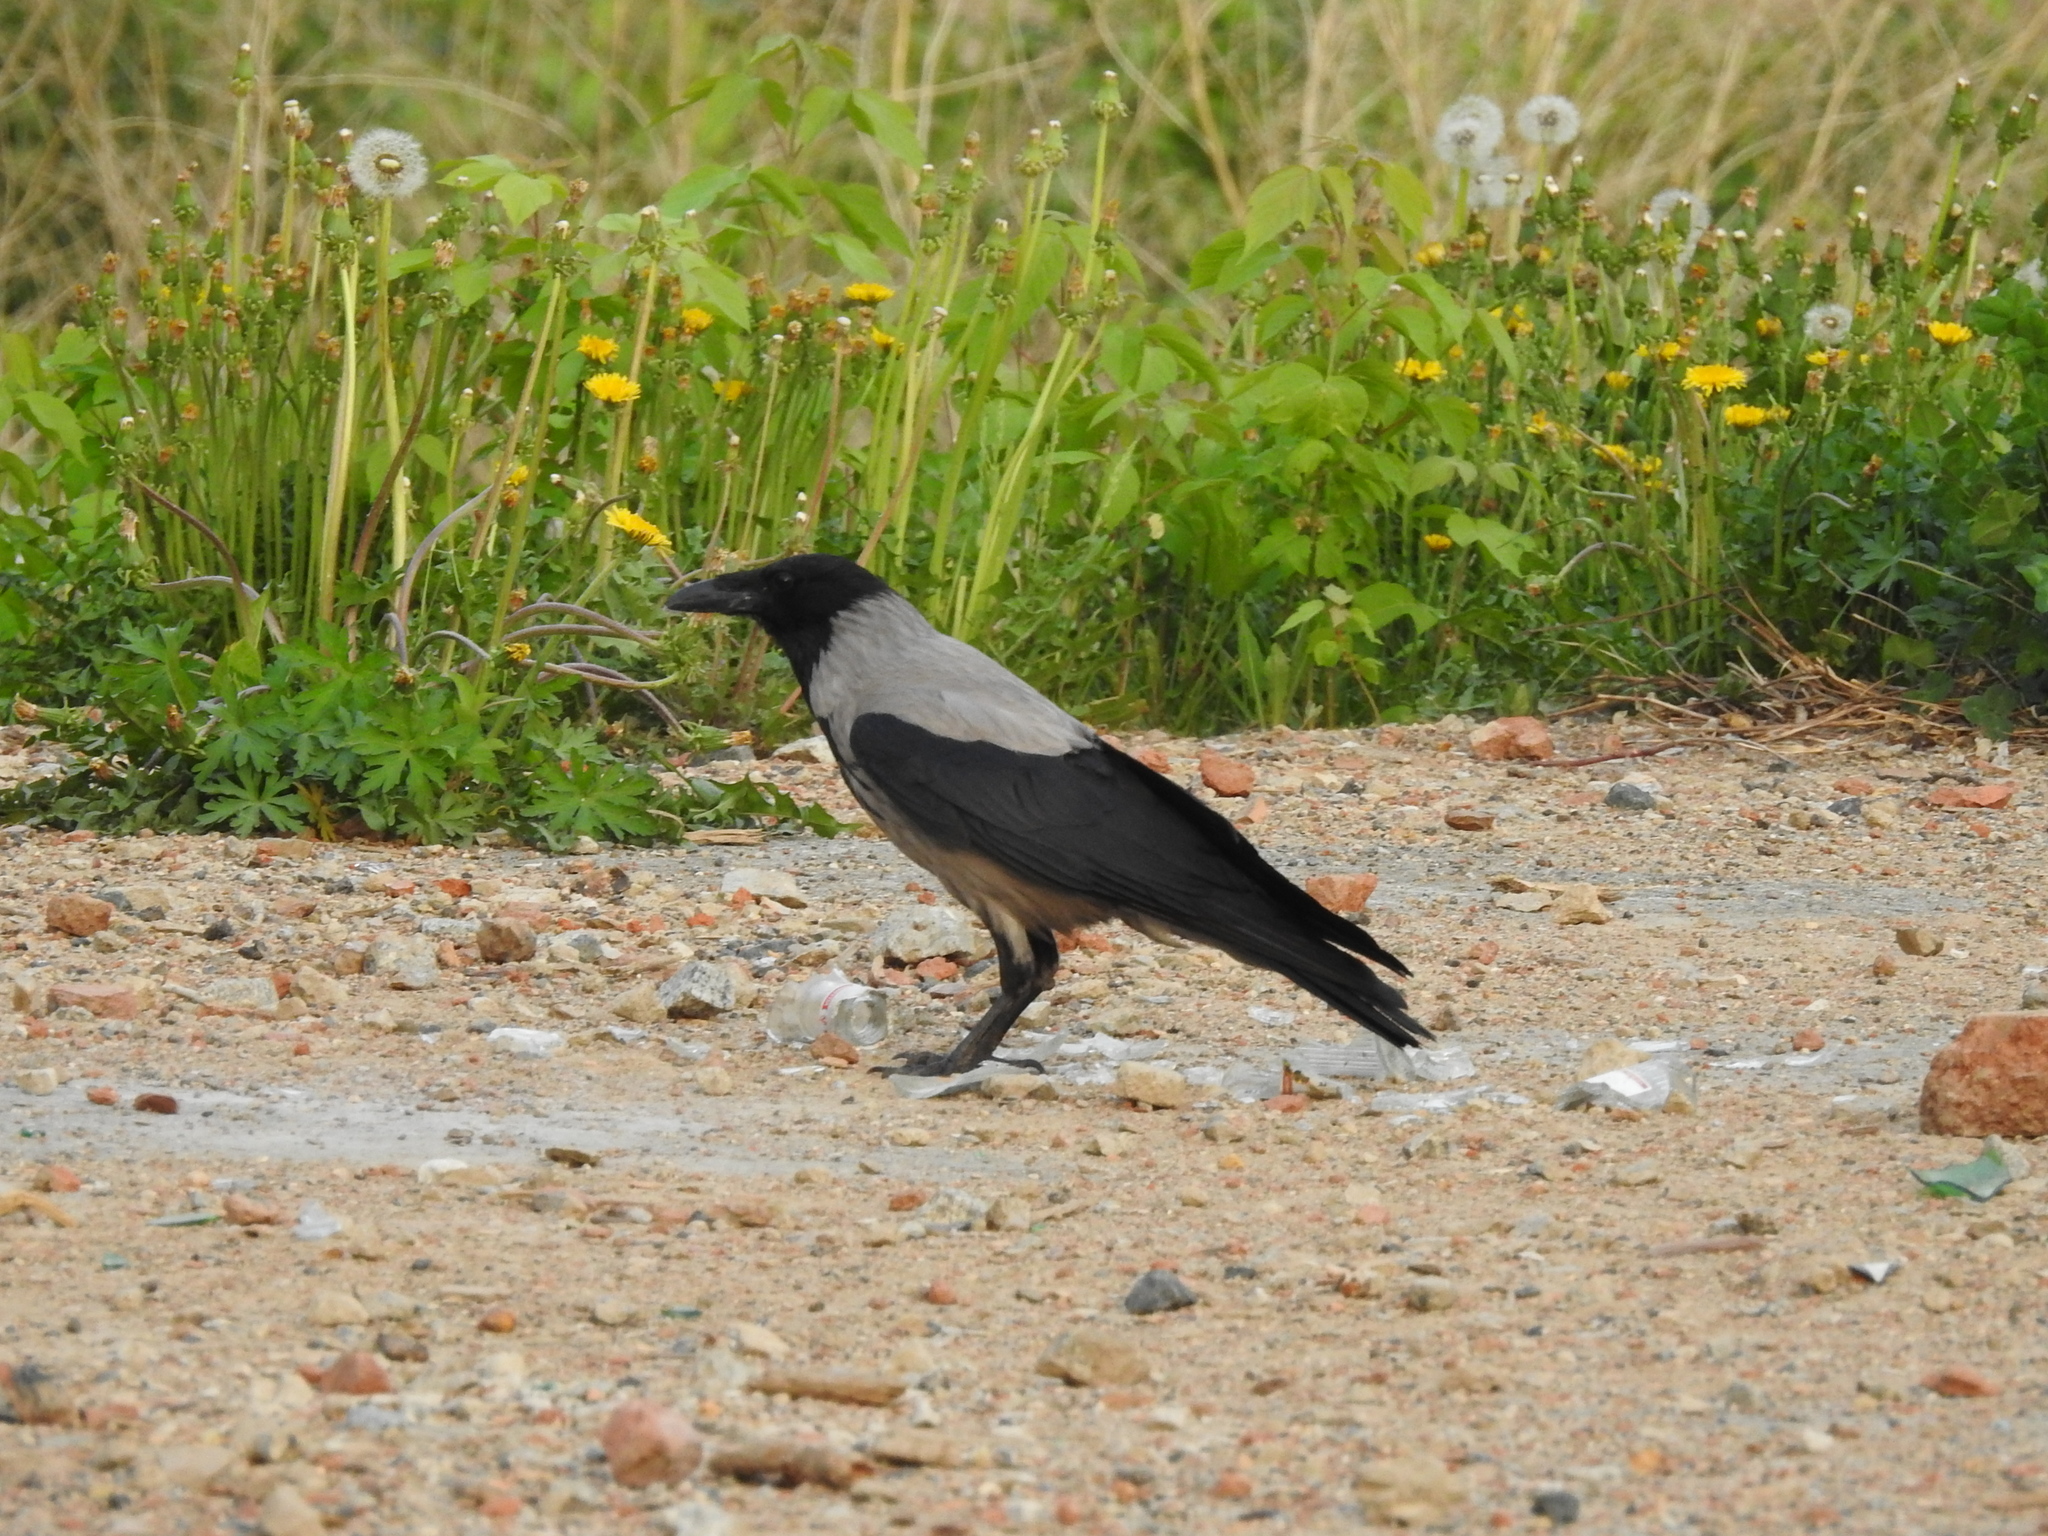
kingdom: Animalia
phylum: Chordata
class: Aves
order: Passeriformes
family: Corvidae
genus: Corvus
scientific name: Corvus cornix
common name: Hooded crow
